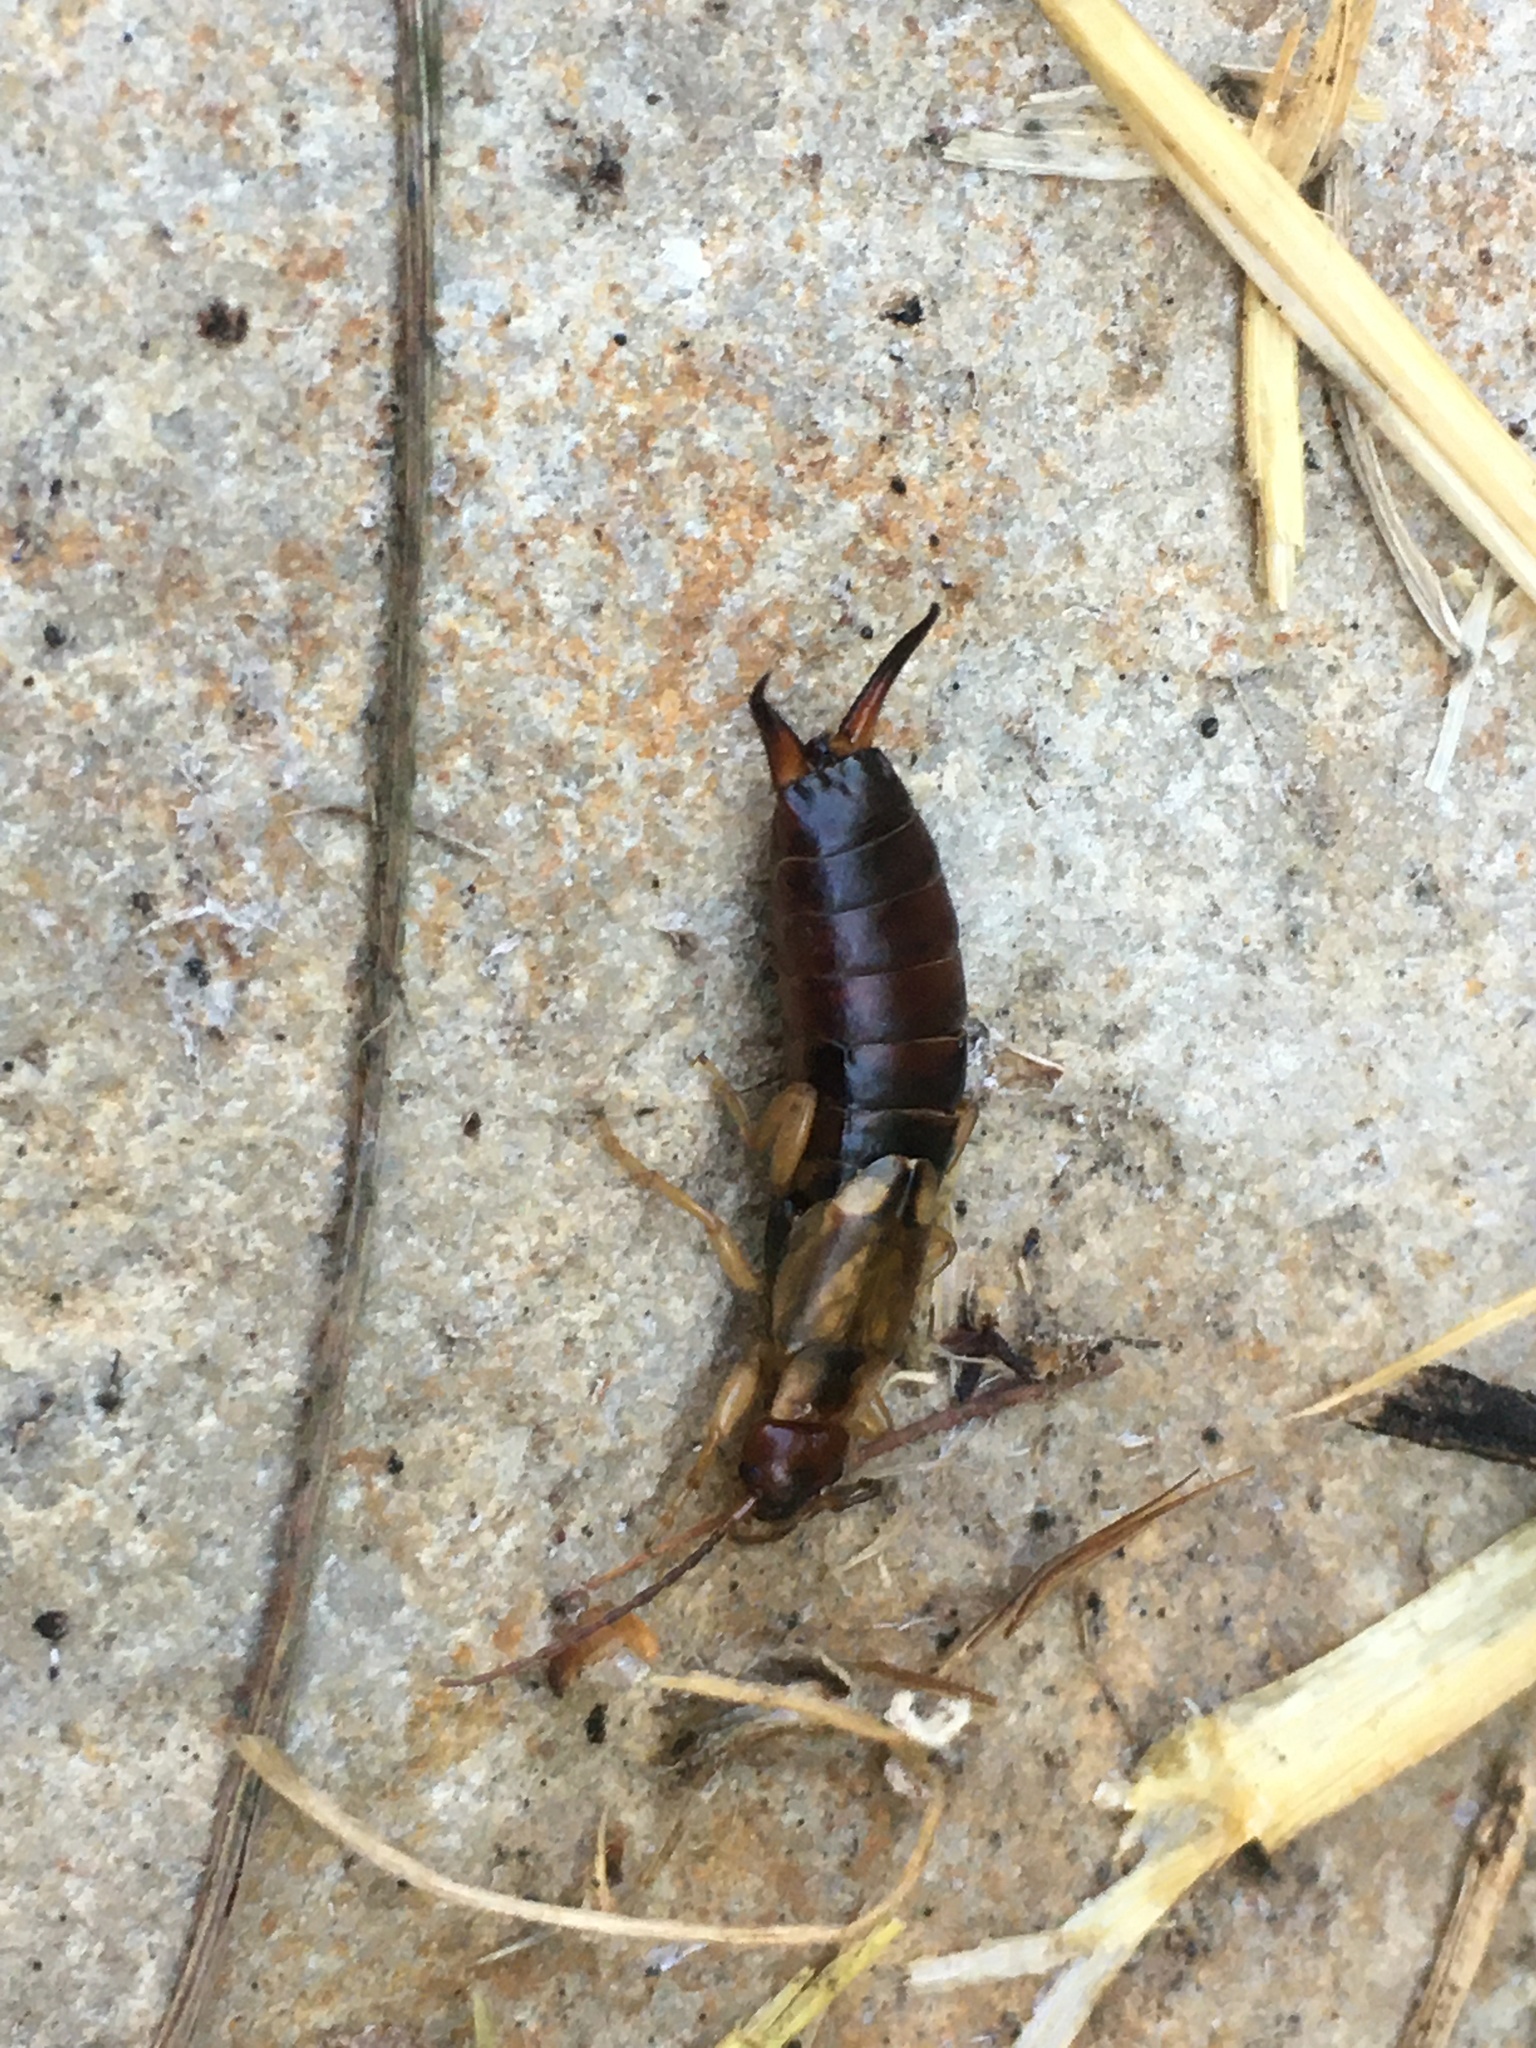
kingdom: Animalia
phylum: Arthropoda
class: Insecta
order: Dermaptera
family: Forficulidae
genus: Forficula
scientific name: Forficula
